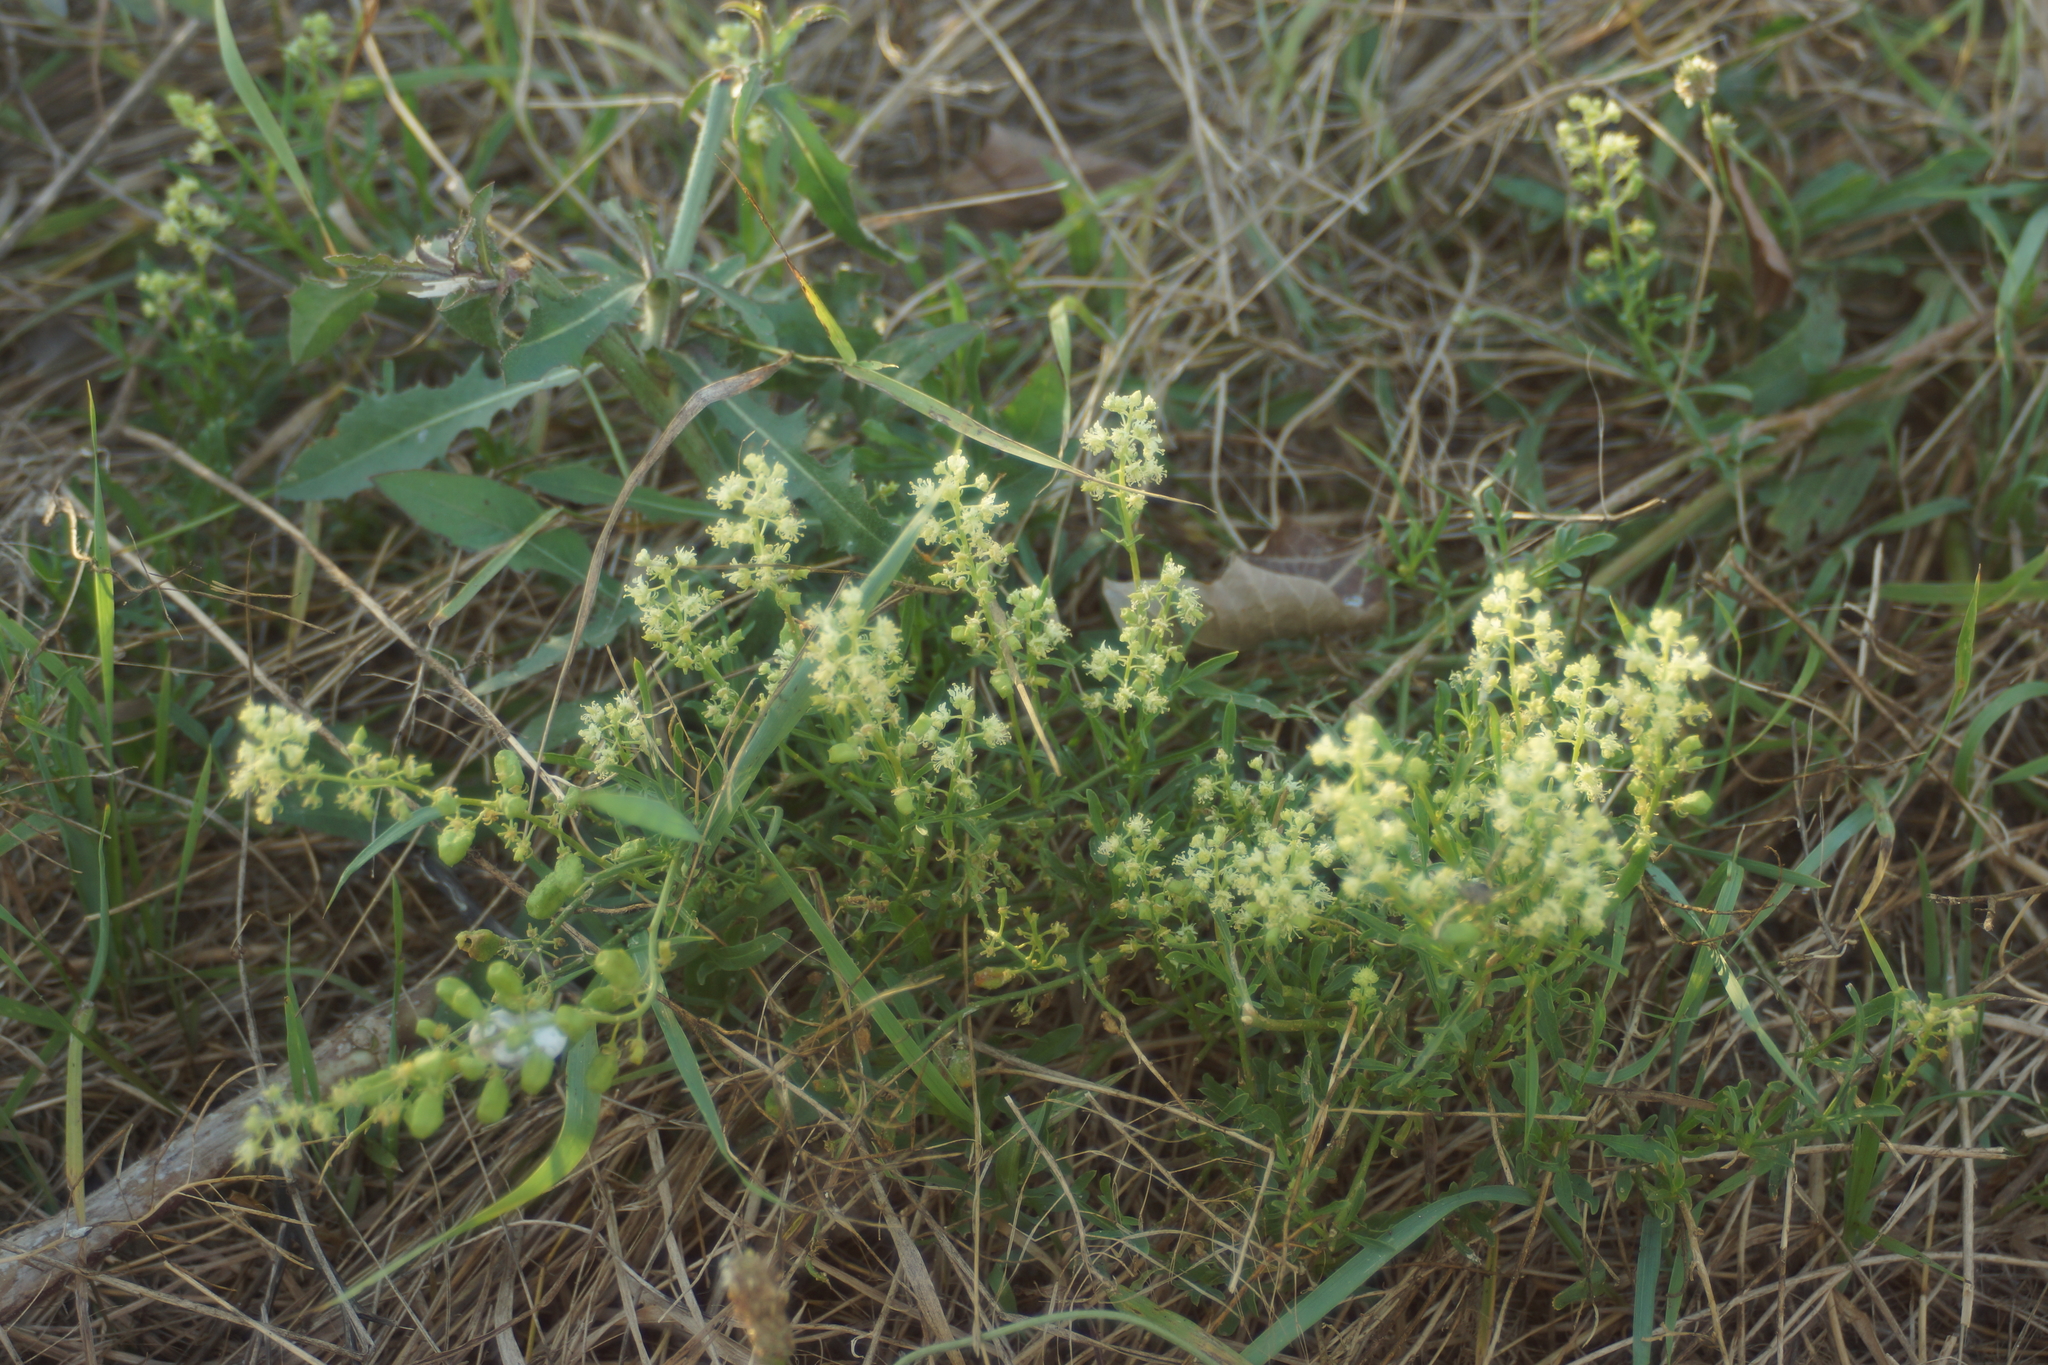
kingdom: Plantae
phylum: Tracheophyta
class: Magnoliopsida
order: Brassicales
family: Resedaceae
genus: Reseda
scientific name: Reseda lutea
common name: Wild mignonette
